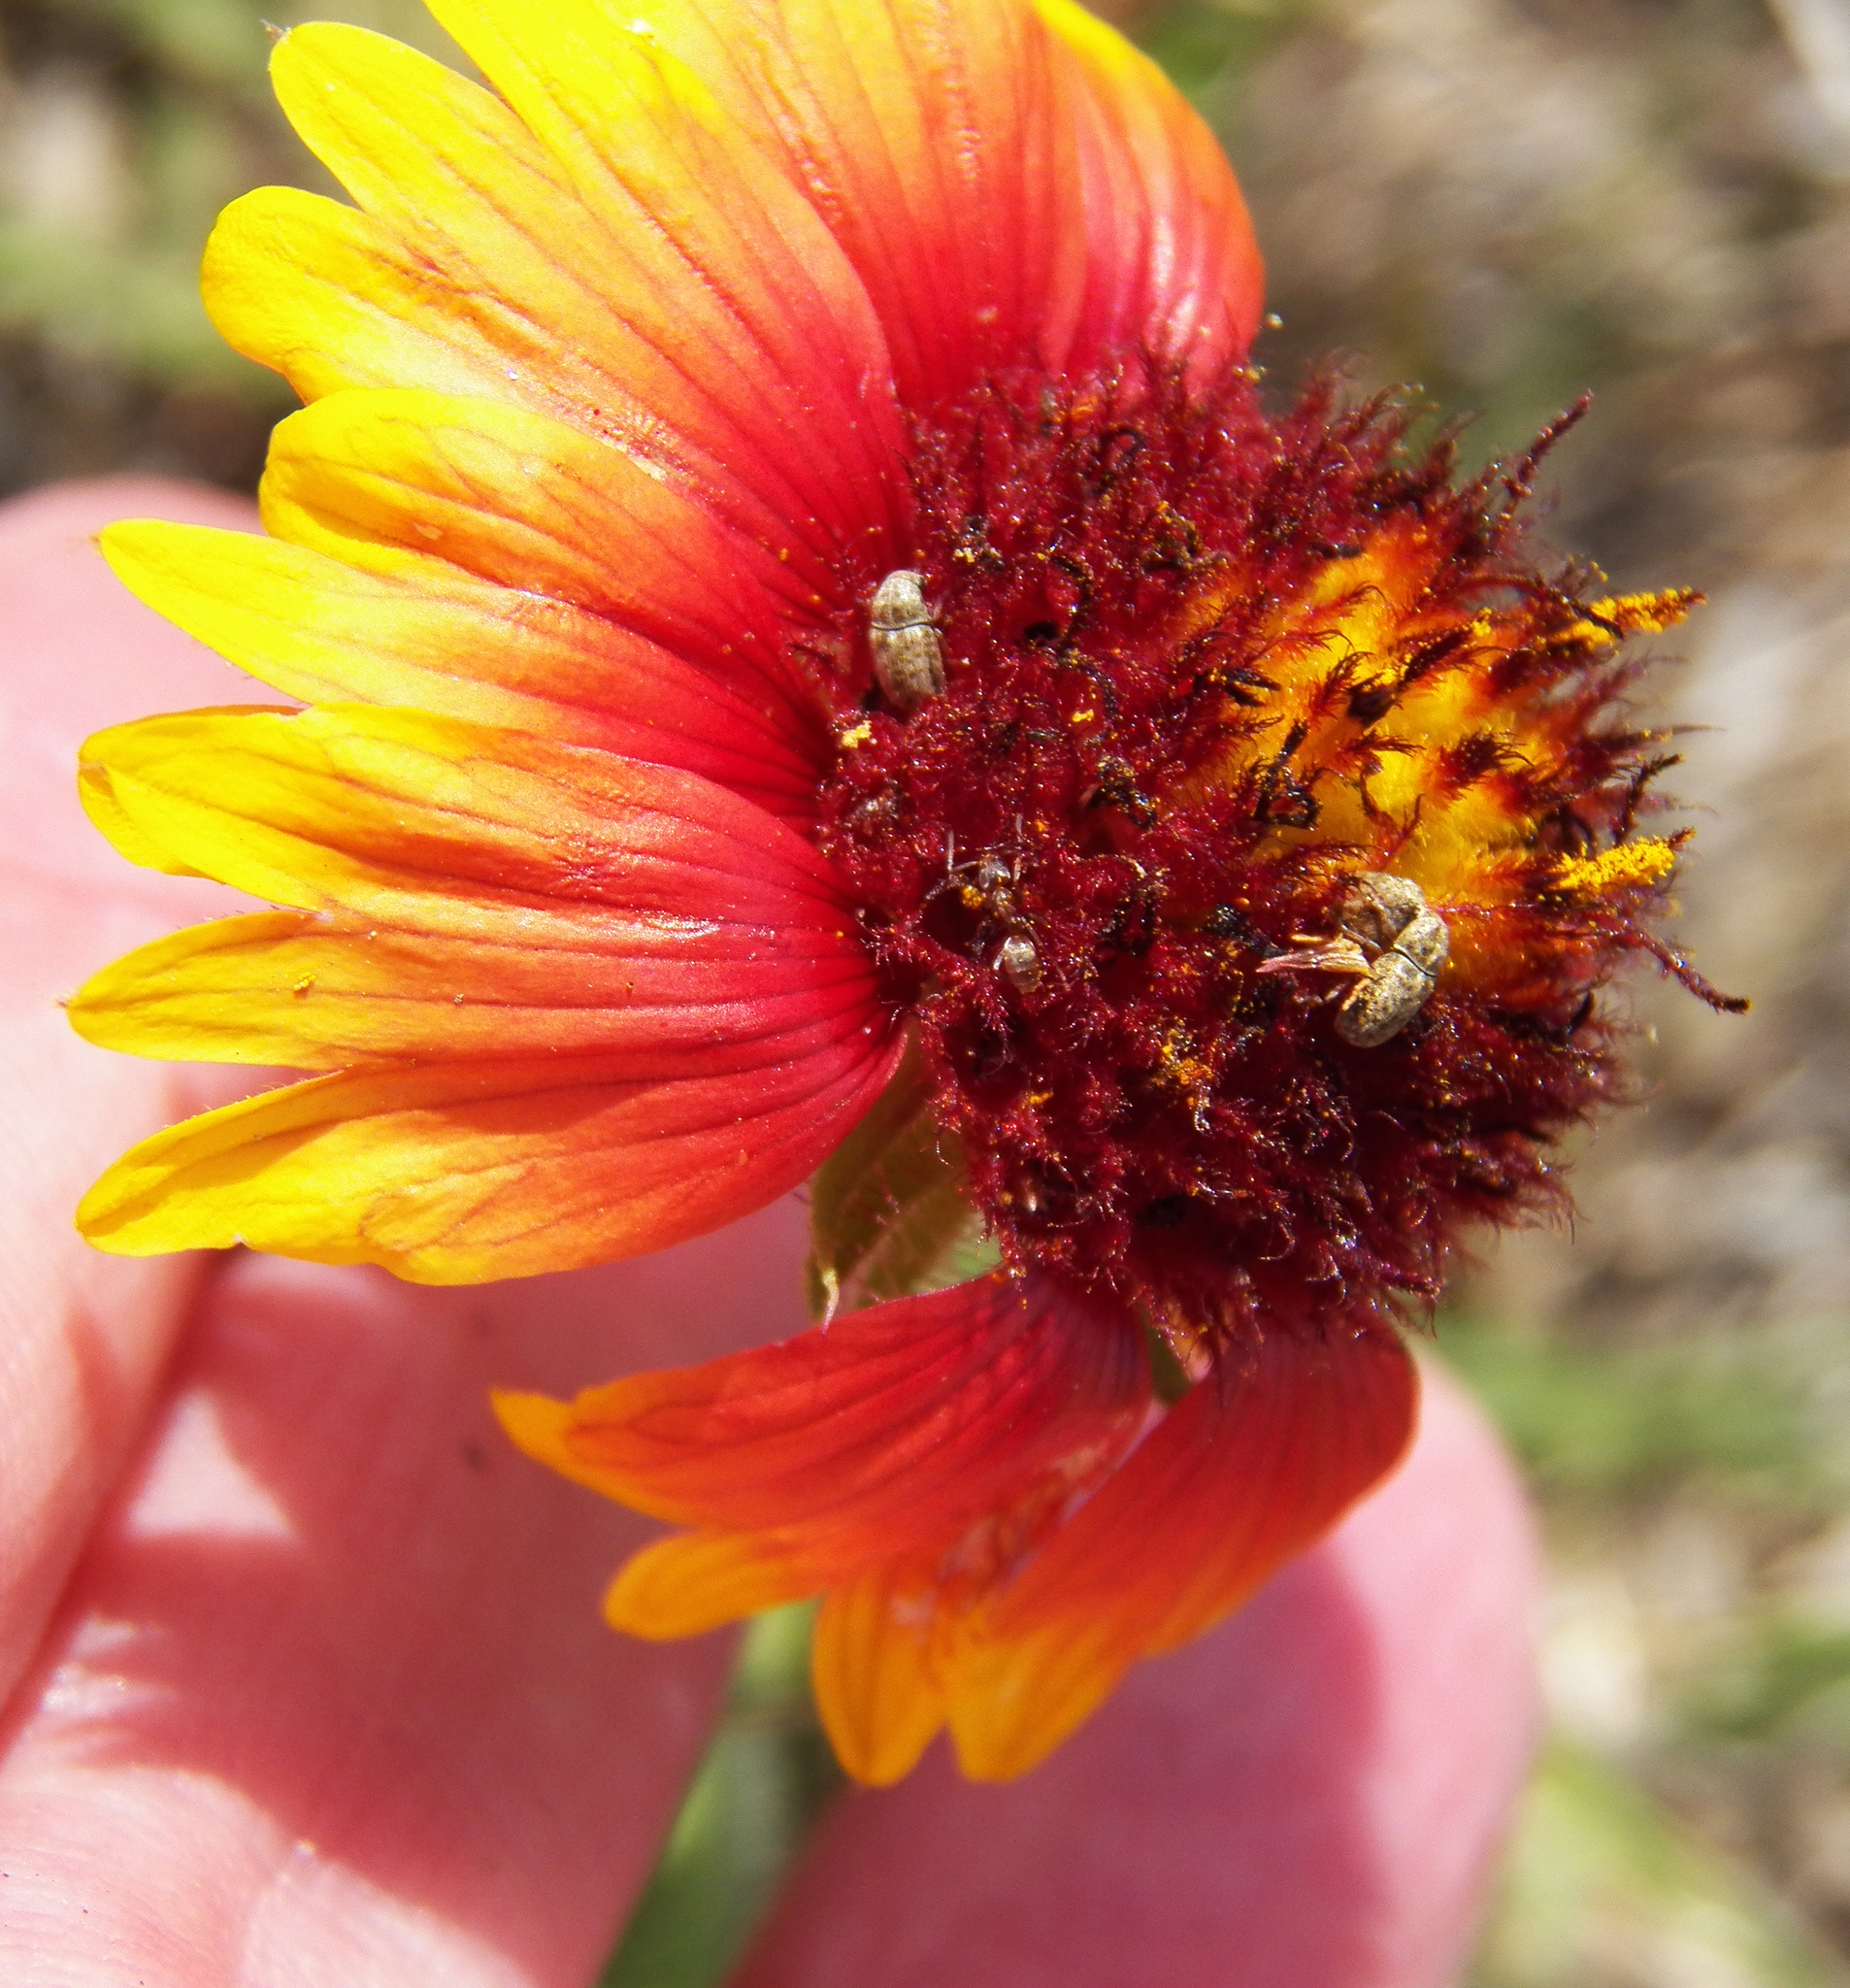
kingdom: Plantae
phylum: Tracheophyta
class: Magnoliopsida
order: Asterales
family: Asteraceae
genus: Gaillardia
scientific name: Gaillardia pulchella
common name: Firewheel
